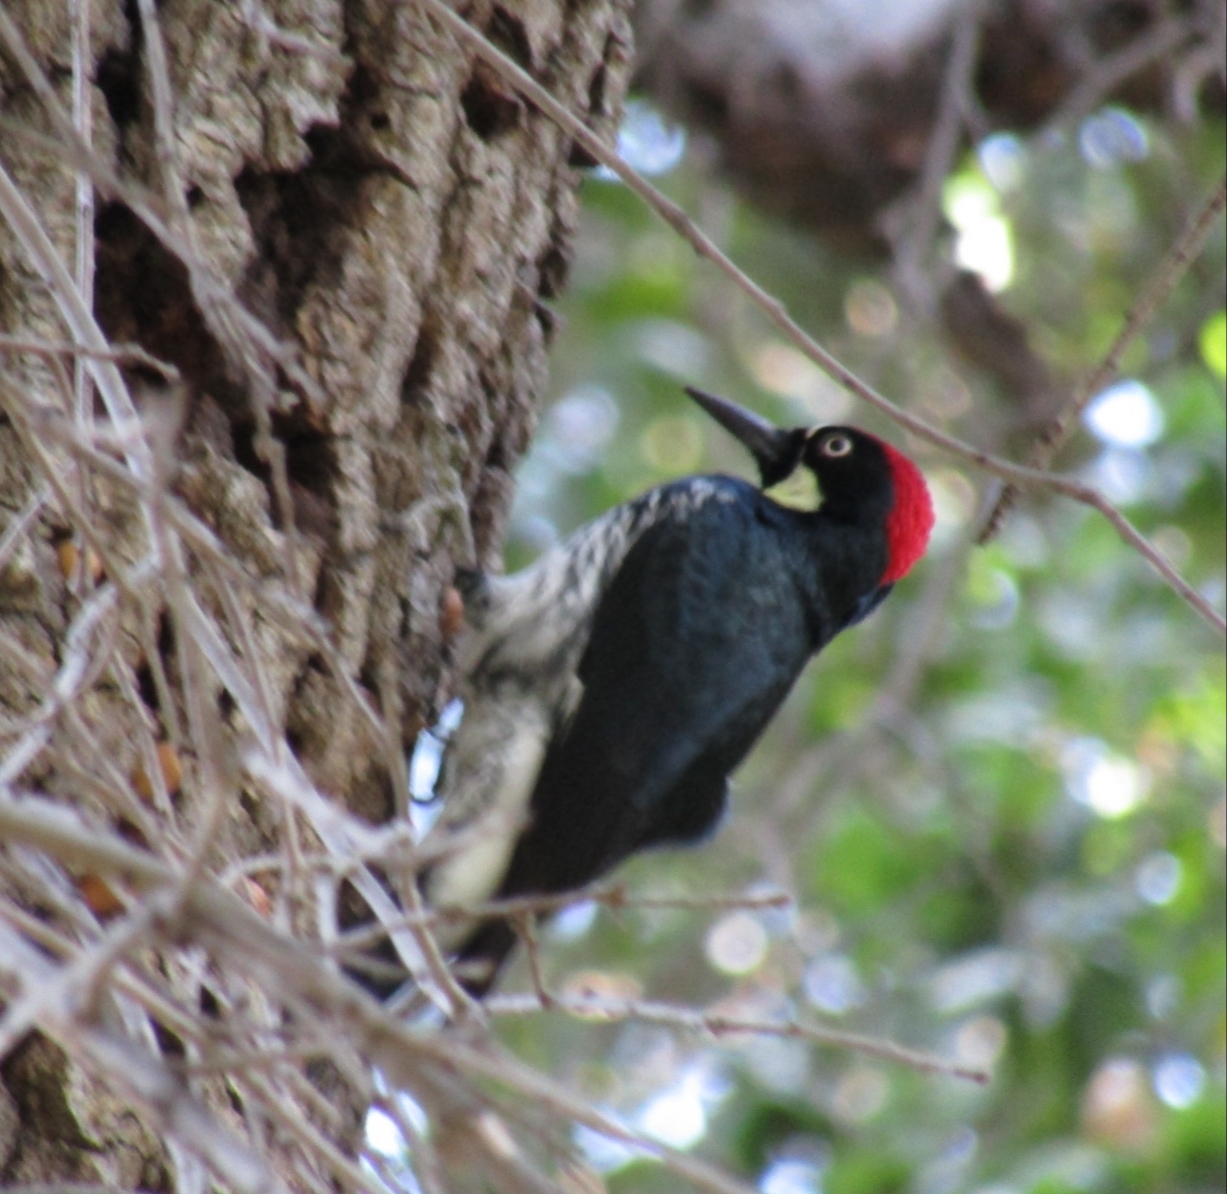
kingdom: Animalia
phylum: Chordata
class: Aves
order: Piciformes
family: Picidae
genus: Melanerpes
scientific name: Melanerpes formicivorus
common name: Acorn woodpecker
